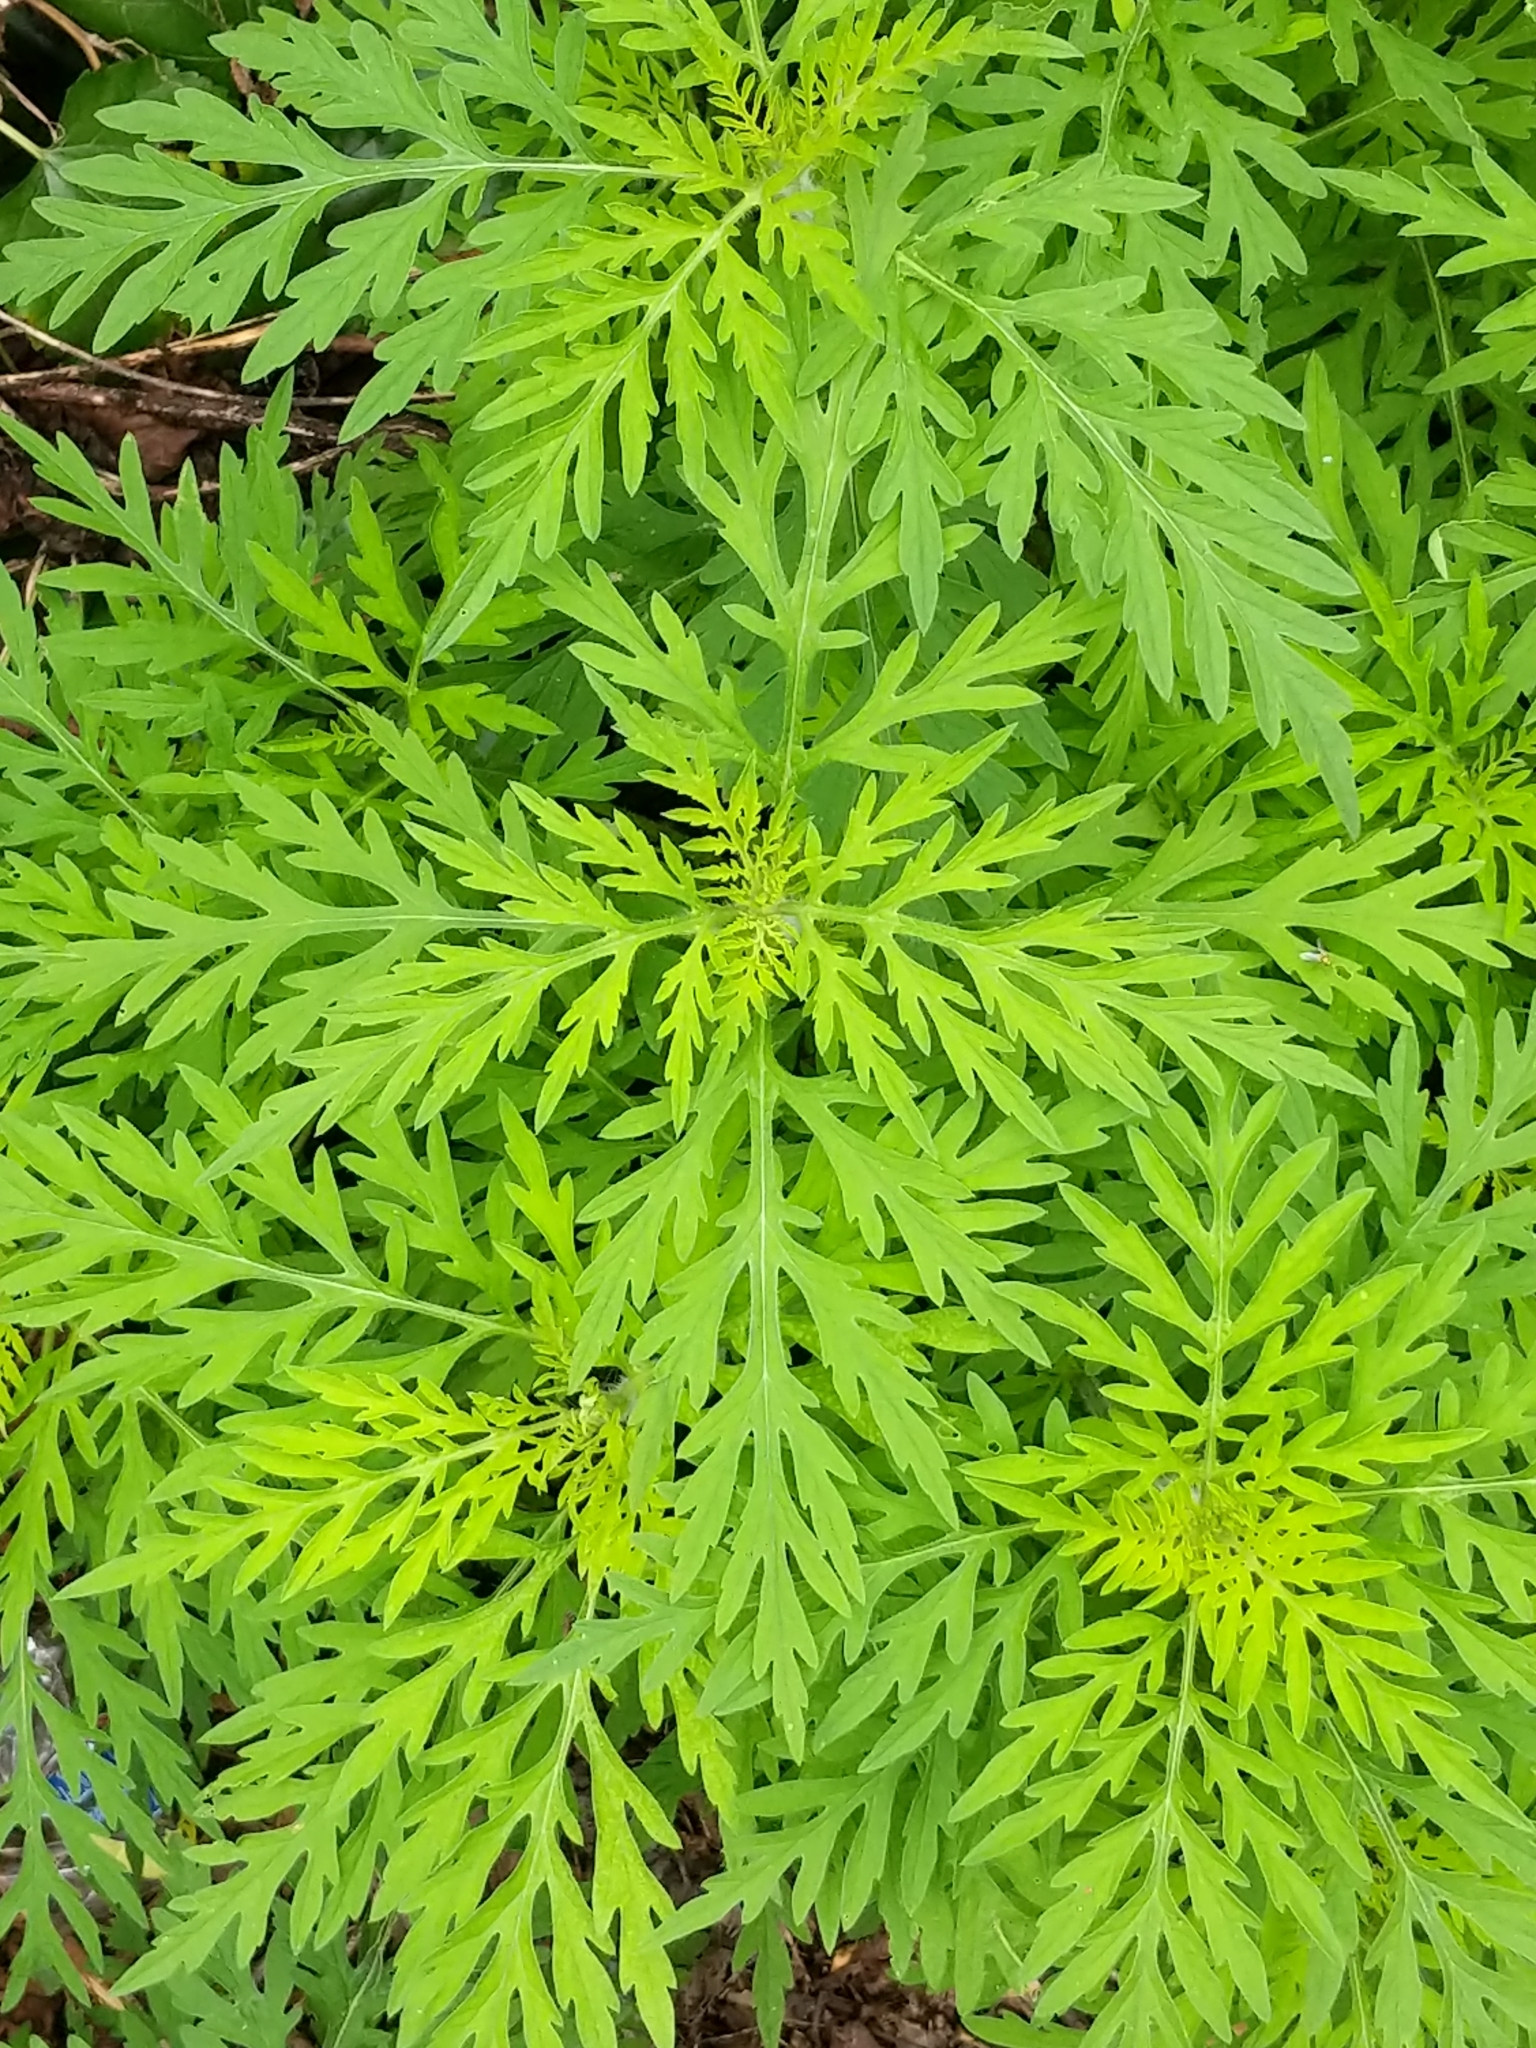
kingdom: Plantae
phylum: Tracheophyta
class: Magnoliopsida
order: Asterales
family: Asteraceae
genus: Ambrosia
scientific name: Ambrosia artemisiifolia
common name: Annual ragweed
